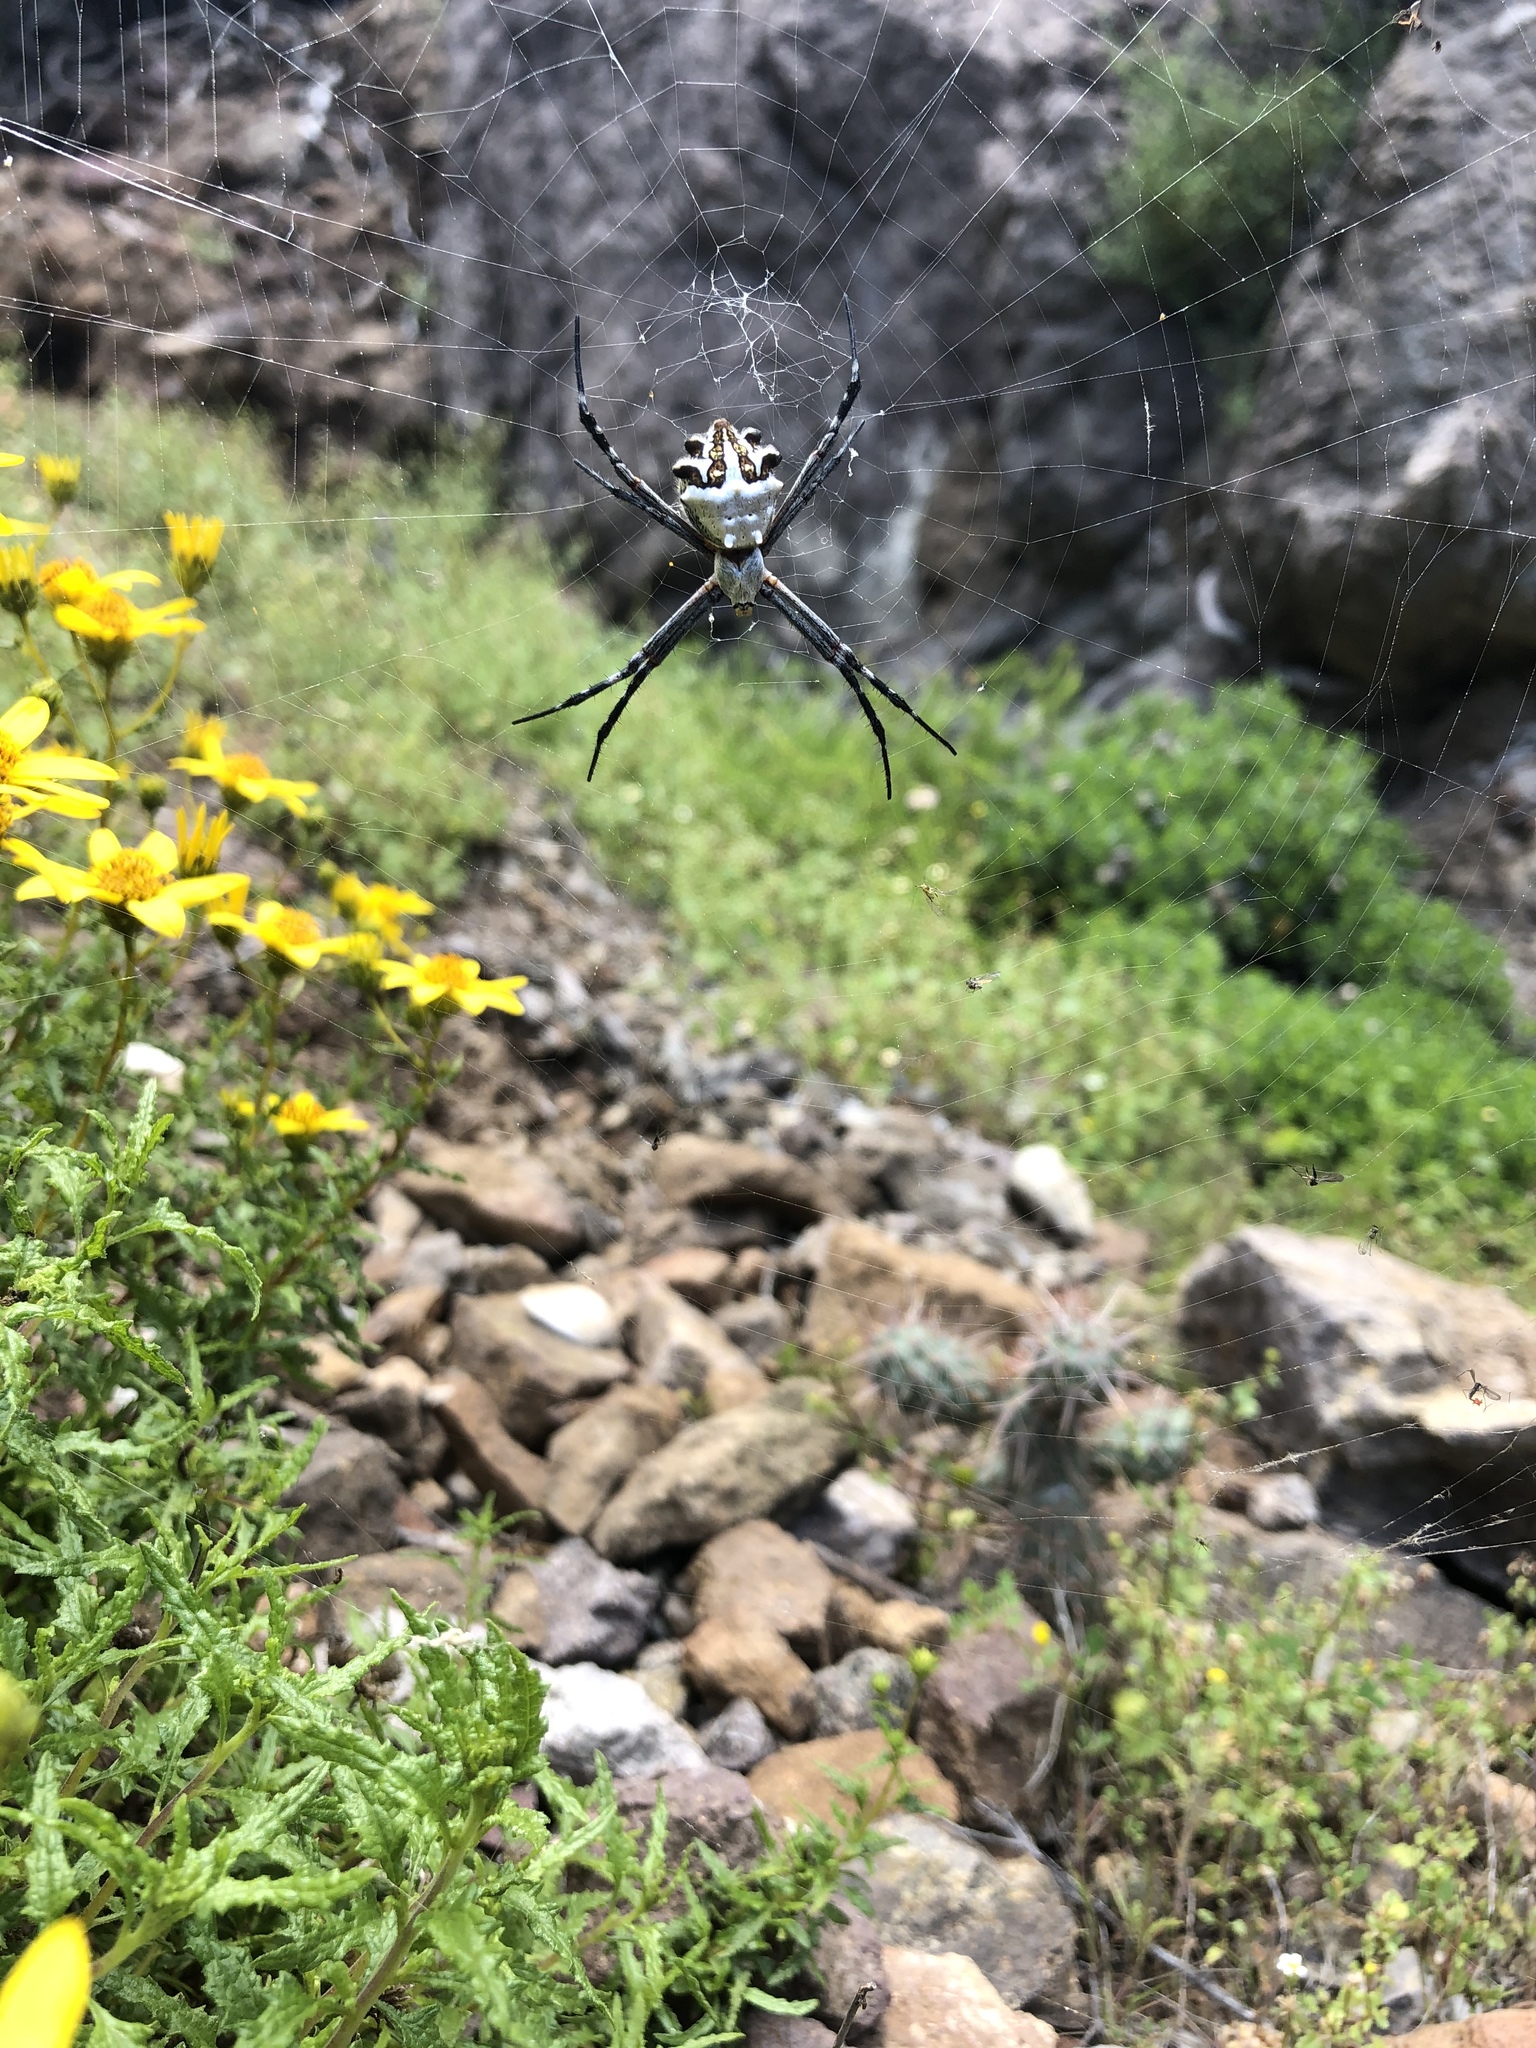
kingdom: Animalia
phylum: Arthropoda
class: Arachnida
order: Araneae
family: Araneidae
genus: Argiope
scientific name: Argiope argentata
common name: Orb weavers
